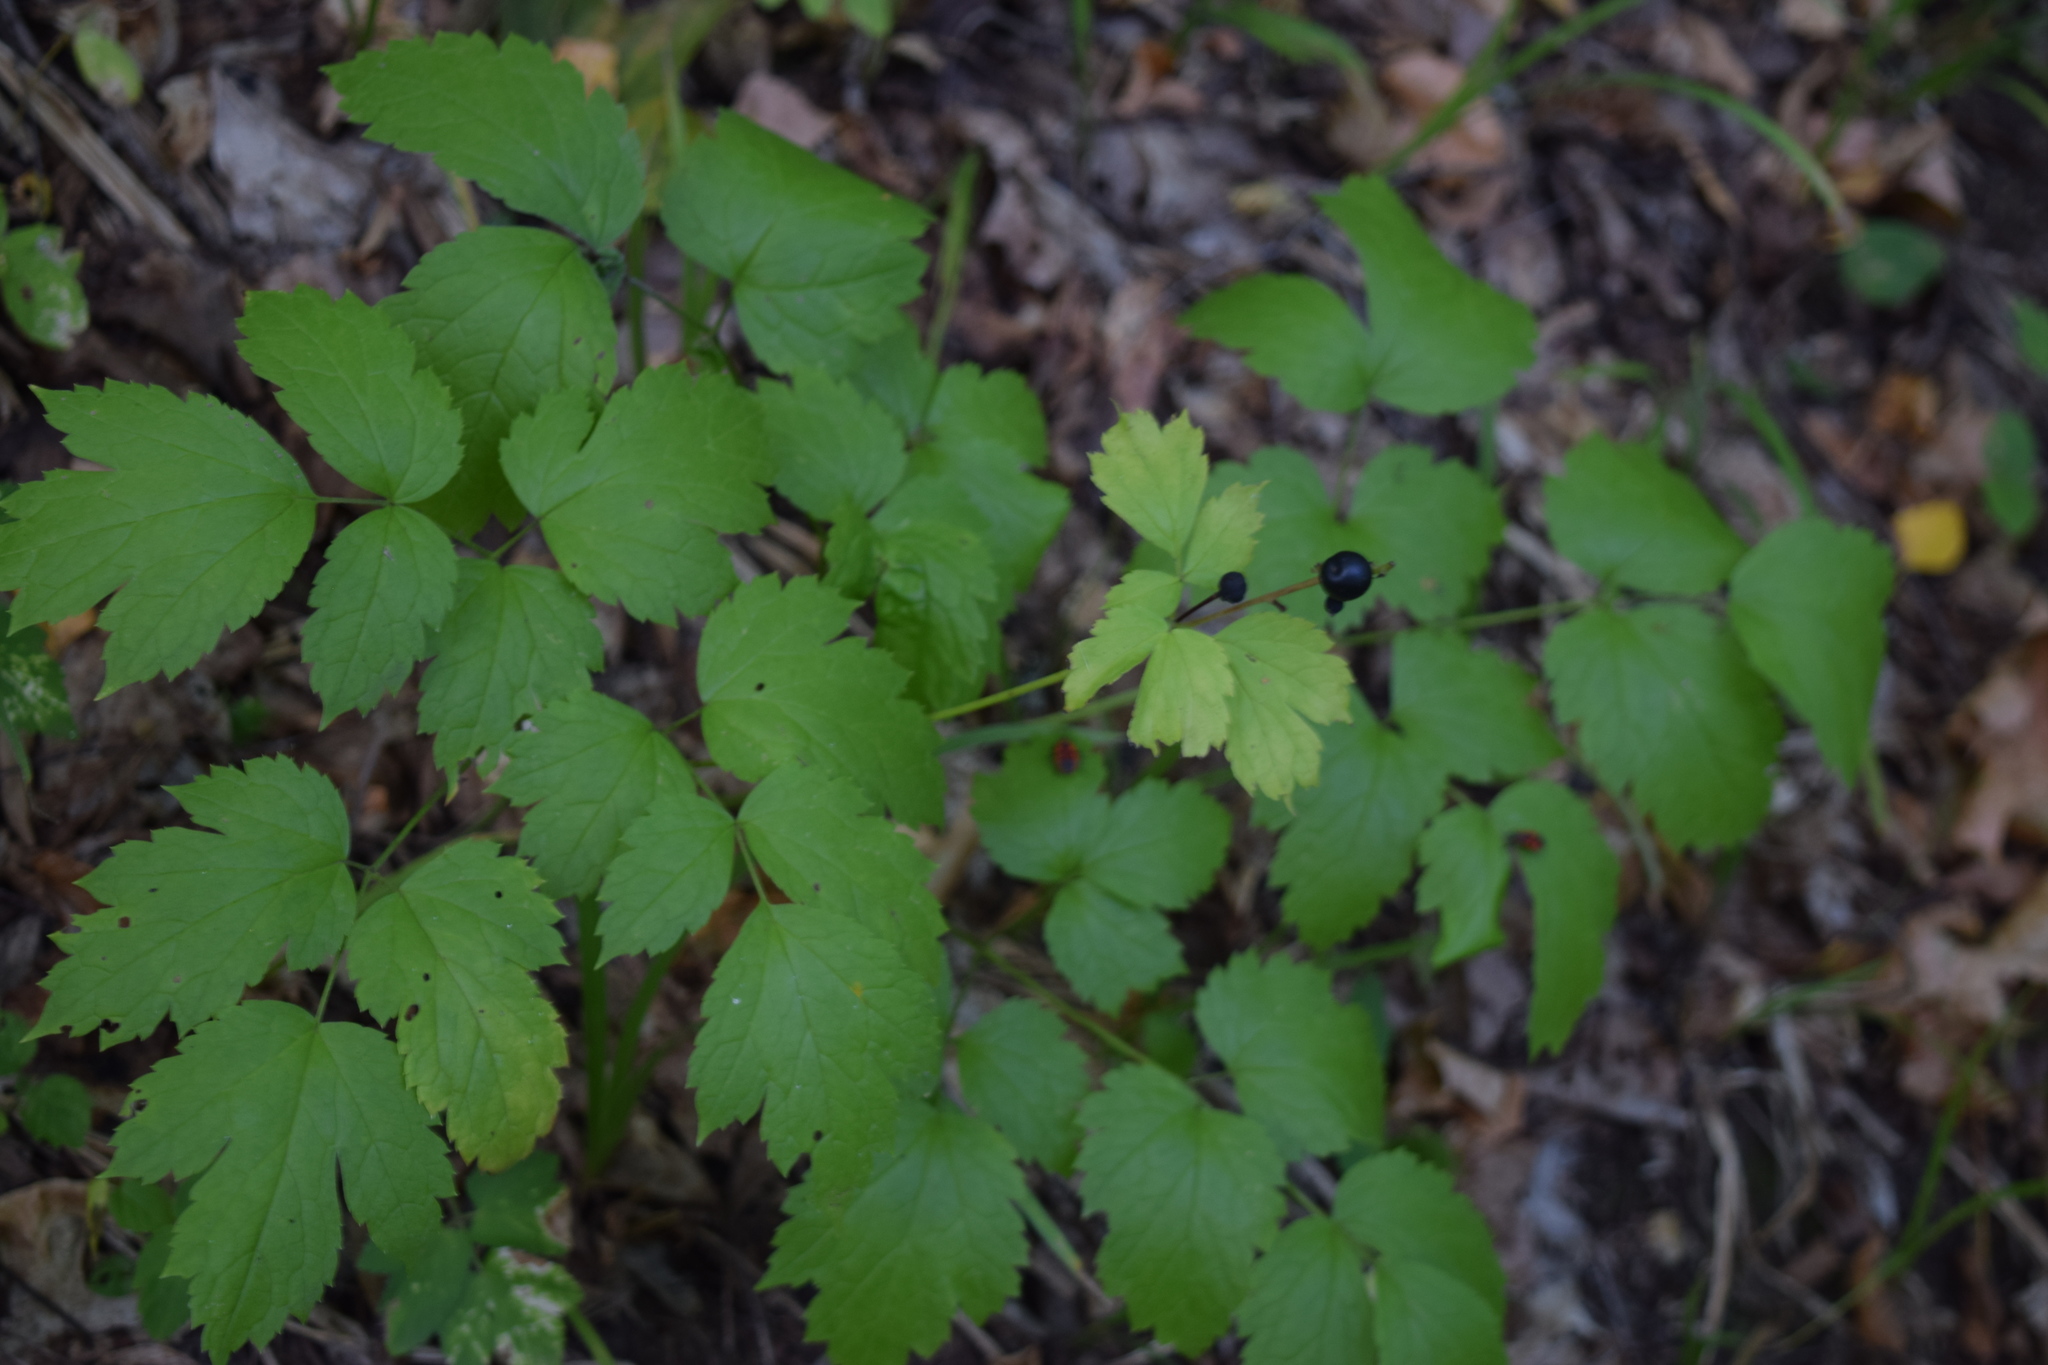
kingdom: Plantae
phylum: Tracheophyta
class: Magnoliopsida
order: Ranunculales
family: Ranunculaceae
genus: Actaea
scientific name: Actaea spicata
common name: Baneberry
